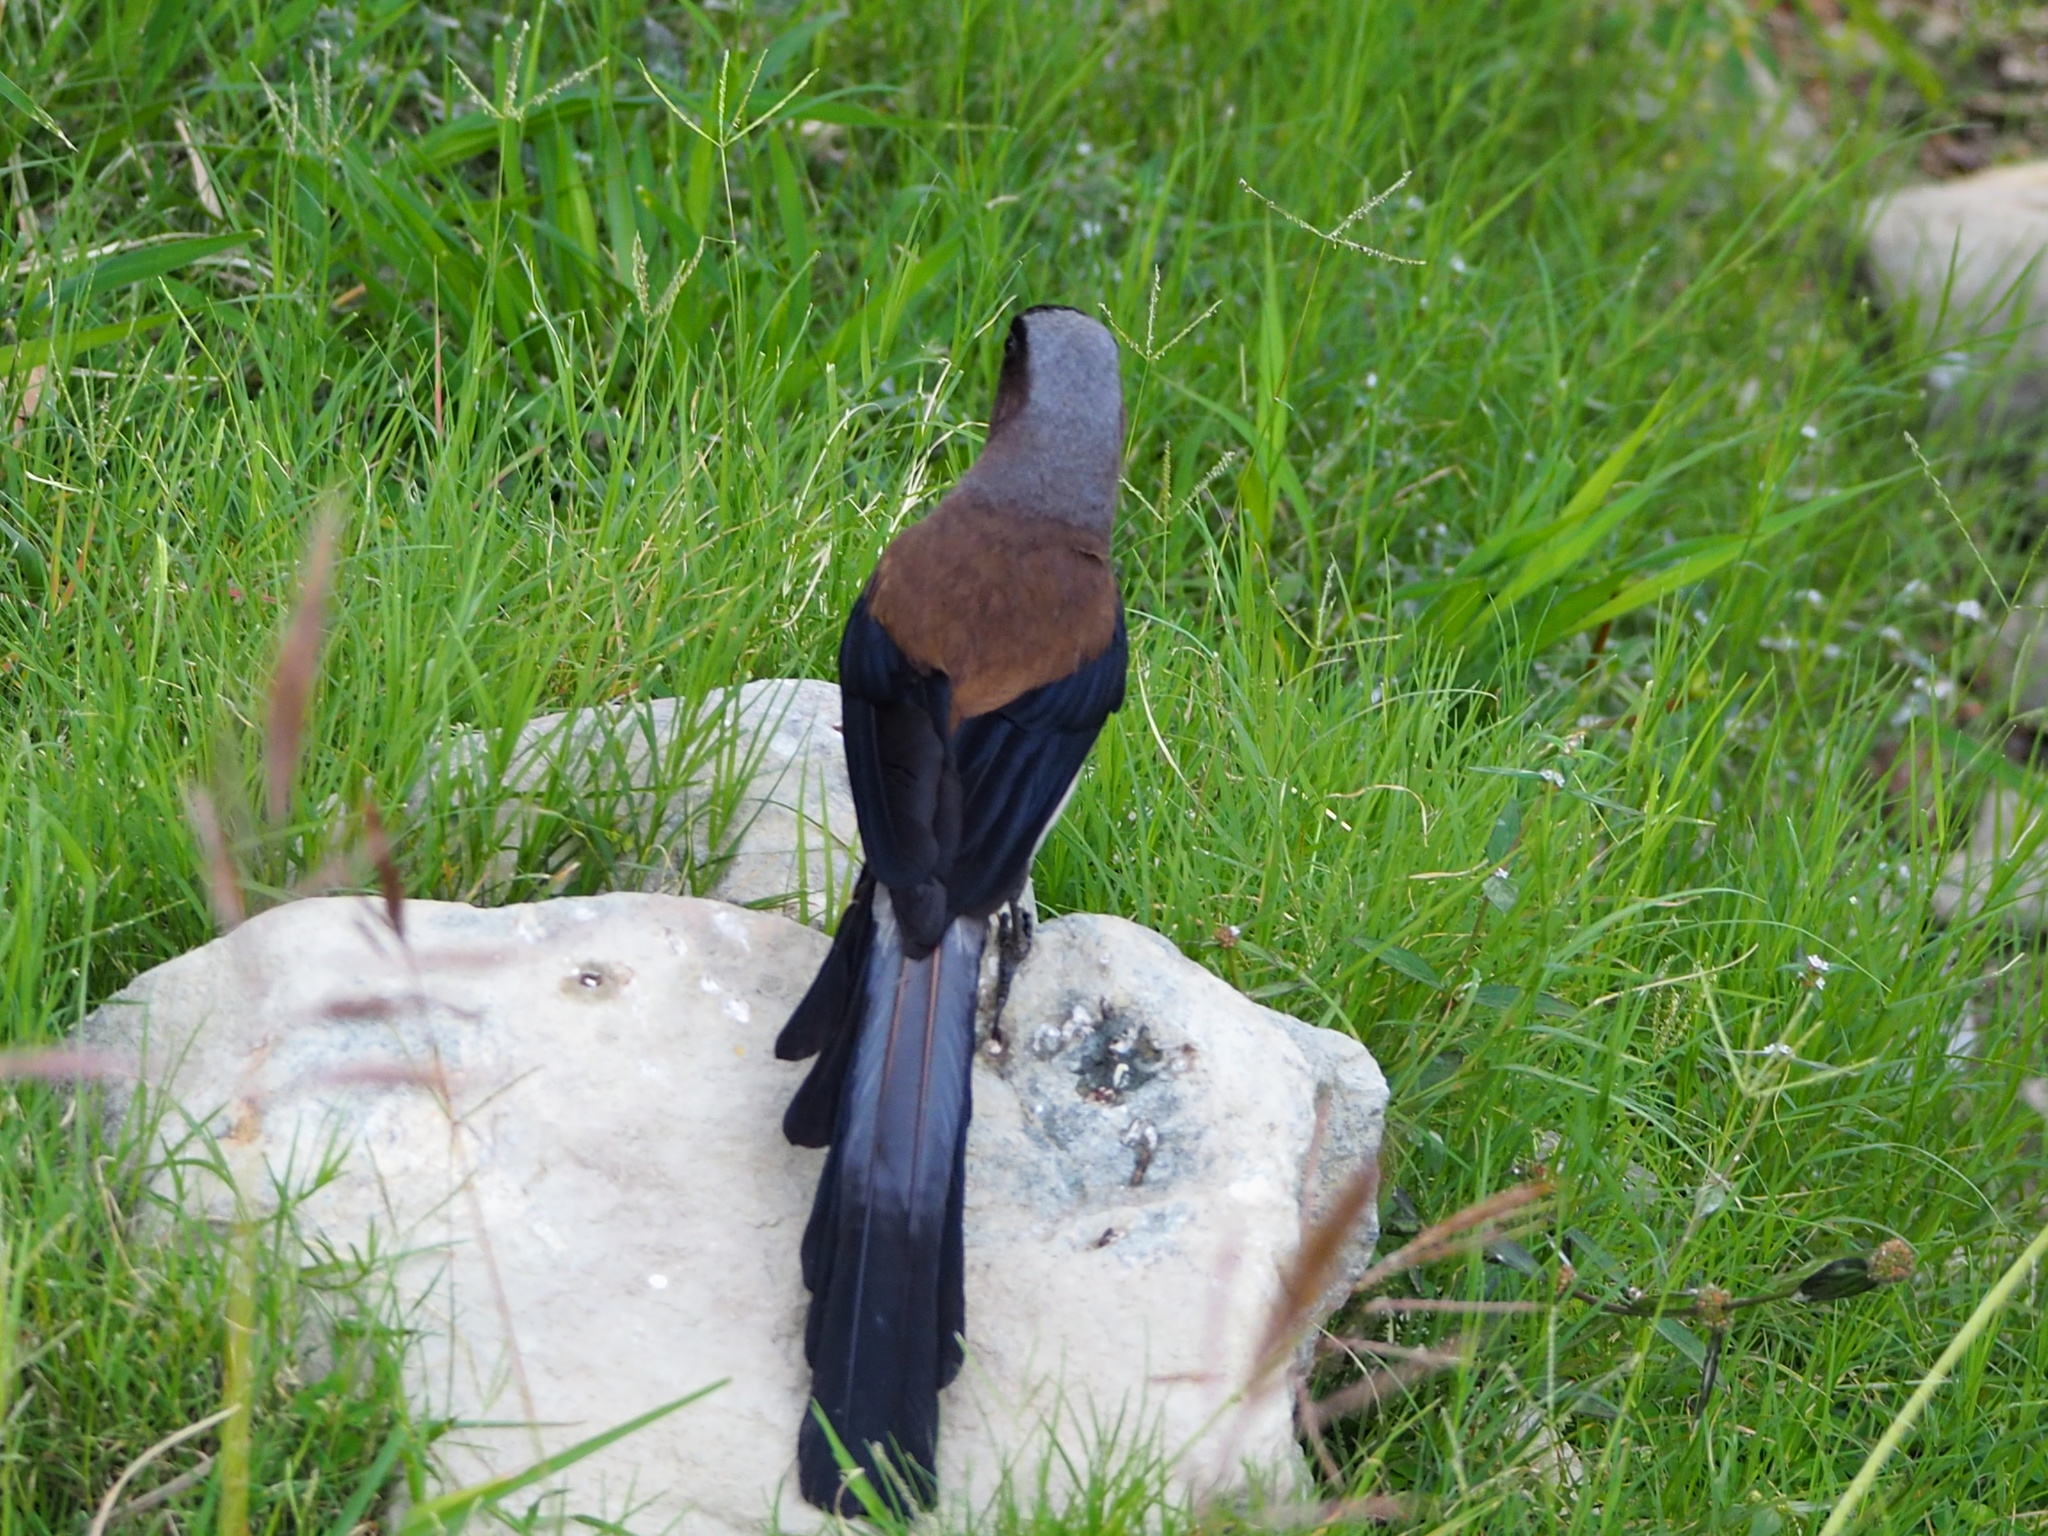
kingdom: Animalia
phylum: Chordata
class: Aves
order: Passeriformes
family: Corvidae
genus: Dendrocitta
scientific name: Dendrocitta formosae
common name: Grey treepie
